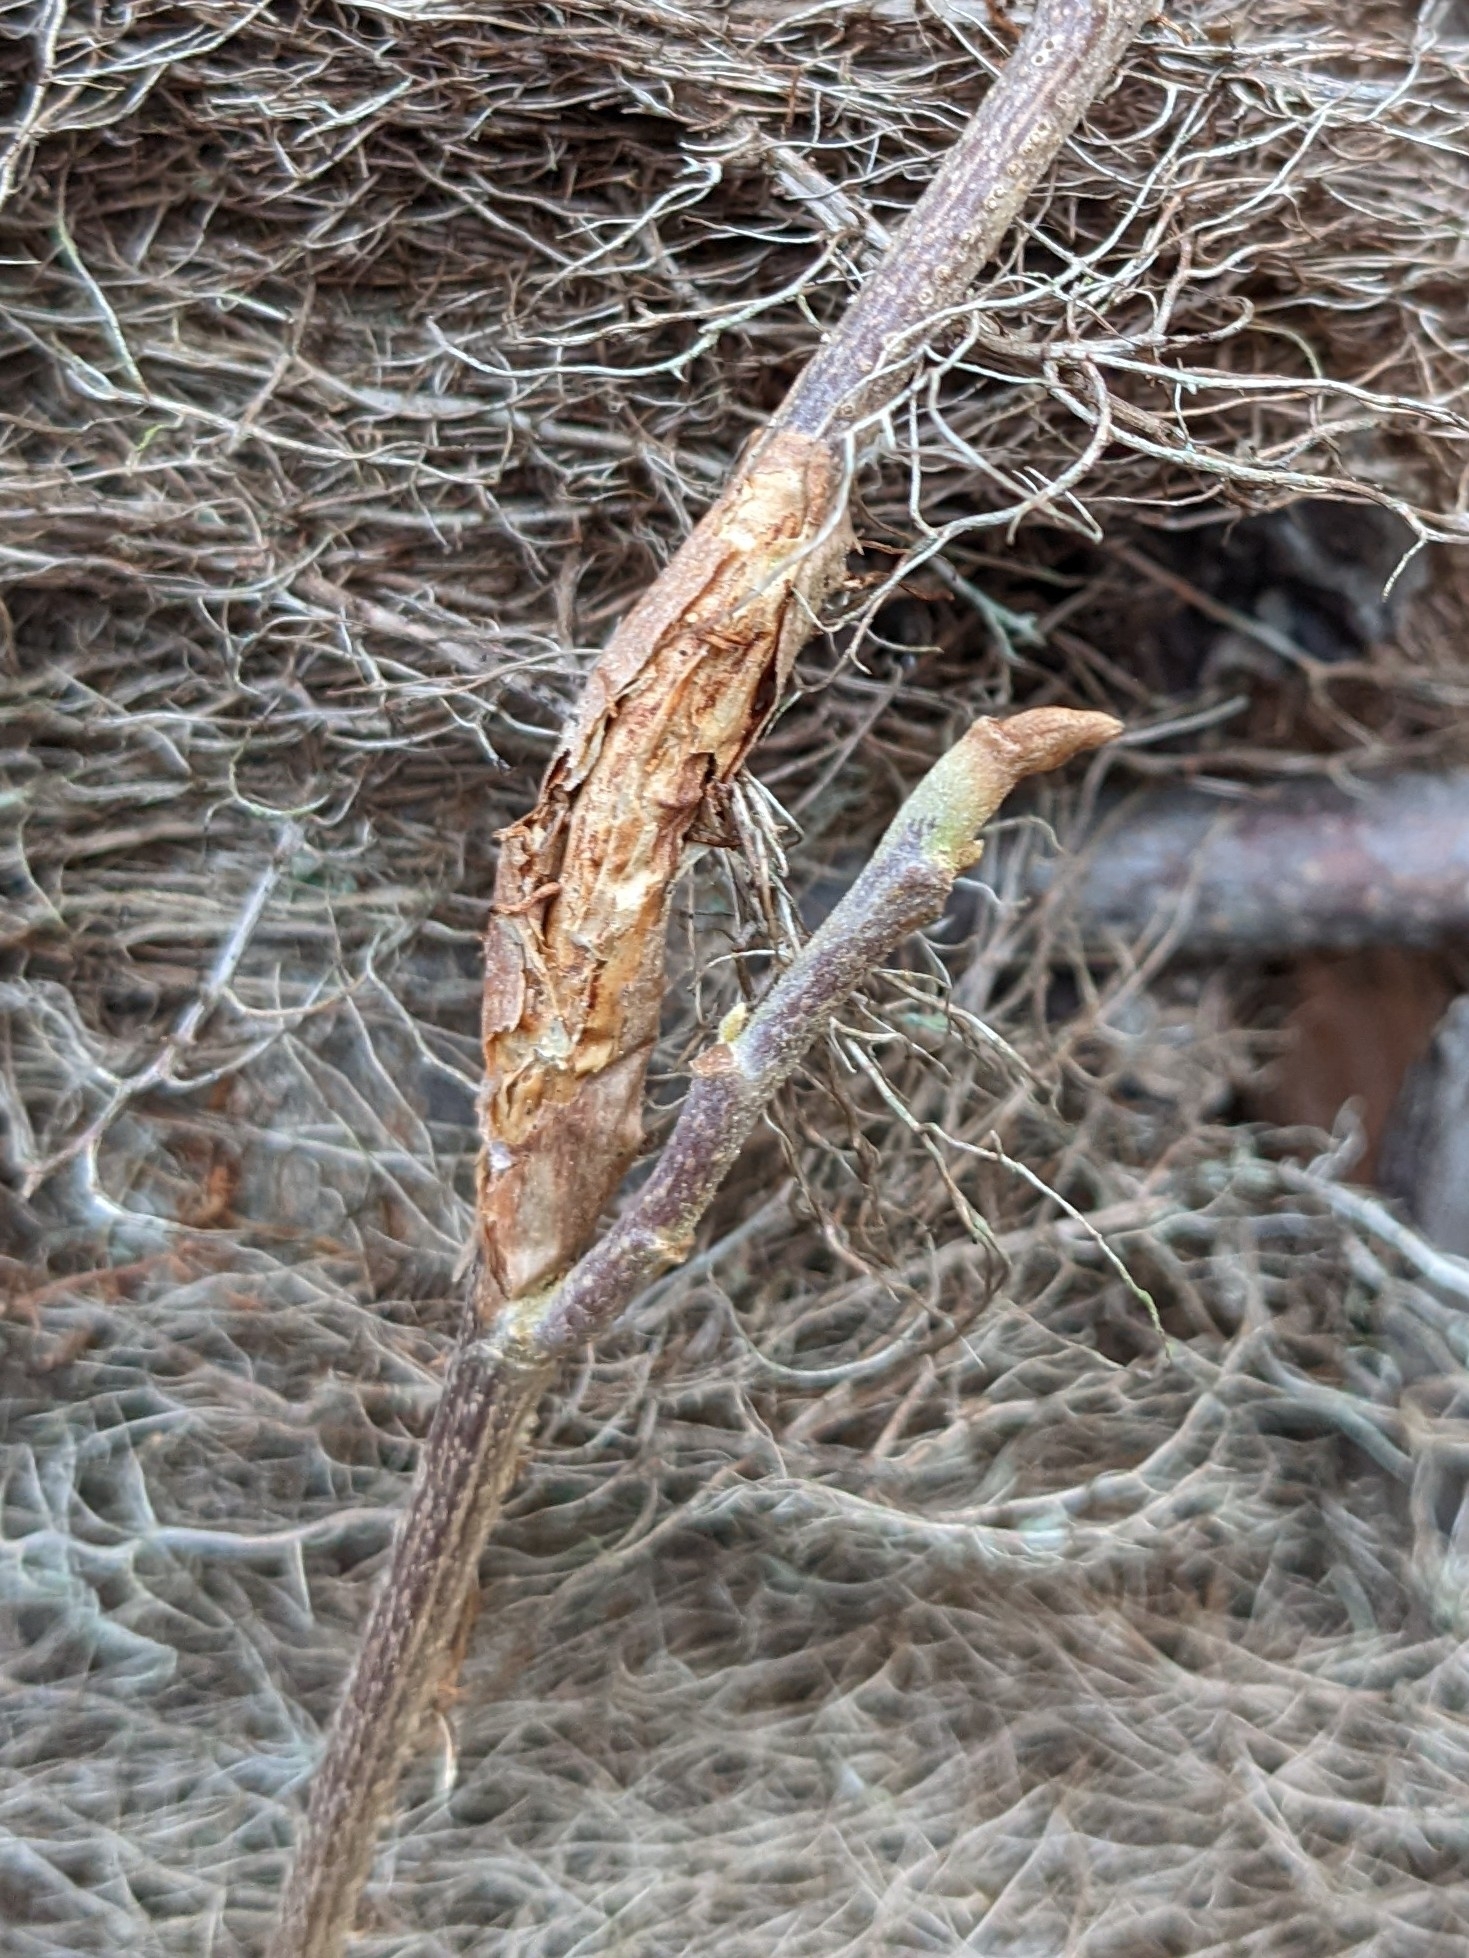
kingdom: Plantae
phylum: Tracheophyta
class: Magnoliopsida
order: Sapindales
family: Anacardiaceae
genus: Toxicodendron
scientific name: Toxicodendron radicans
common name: Poison ivy
